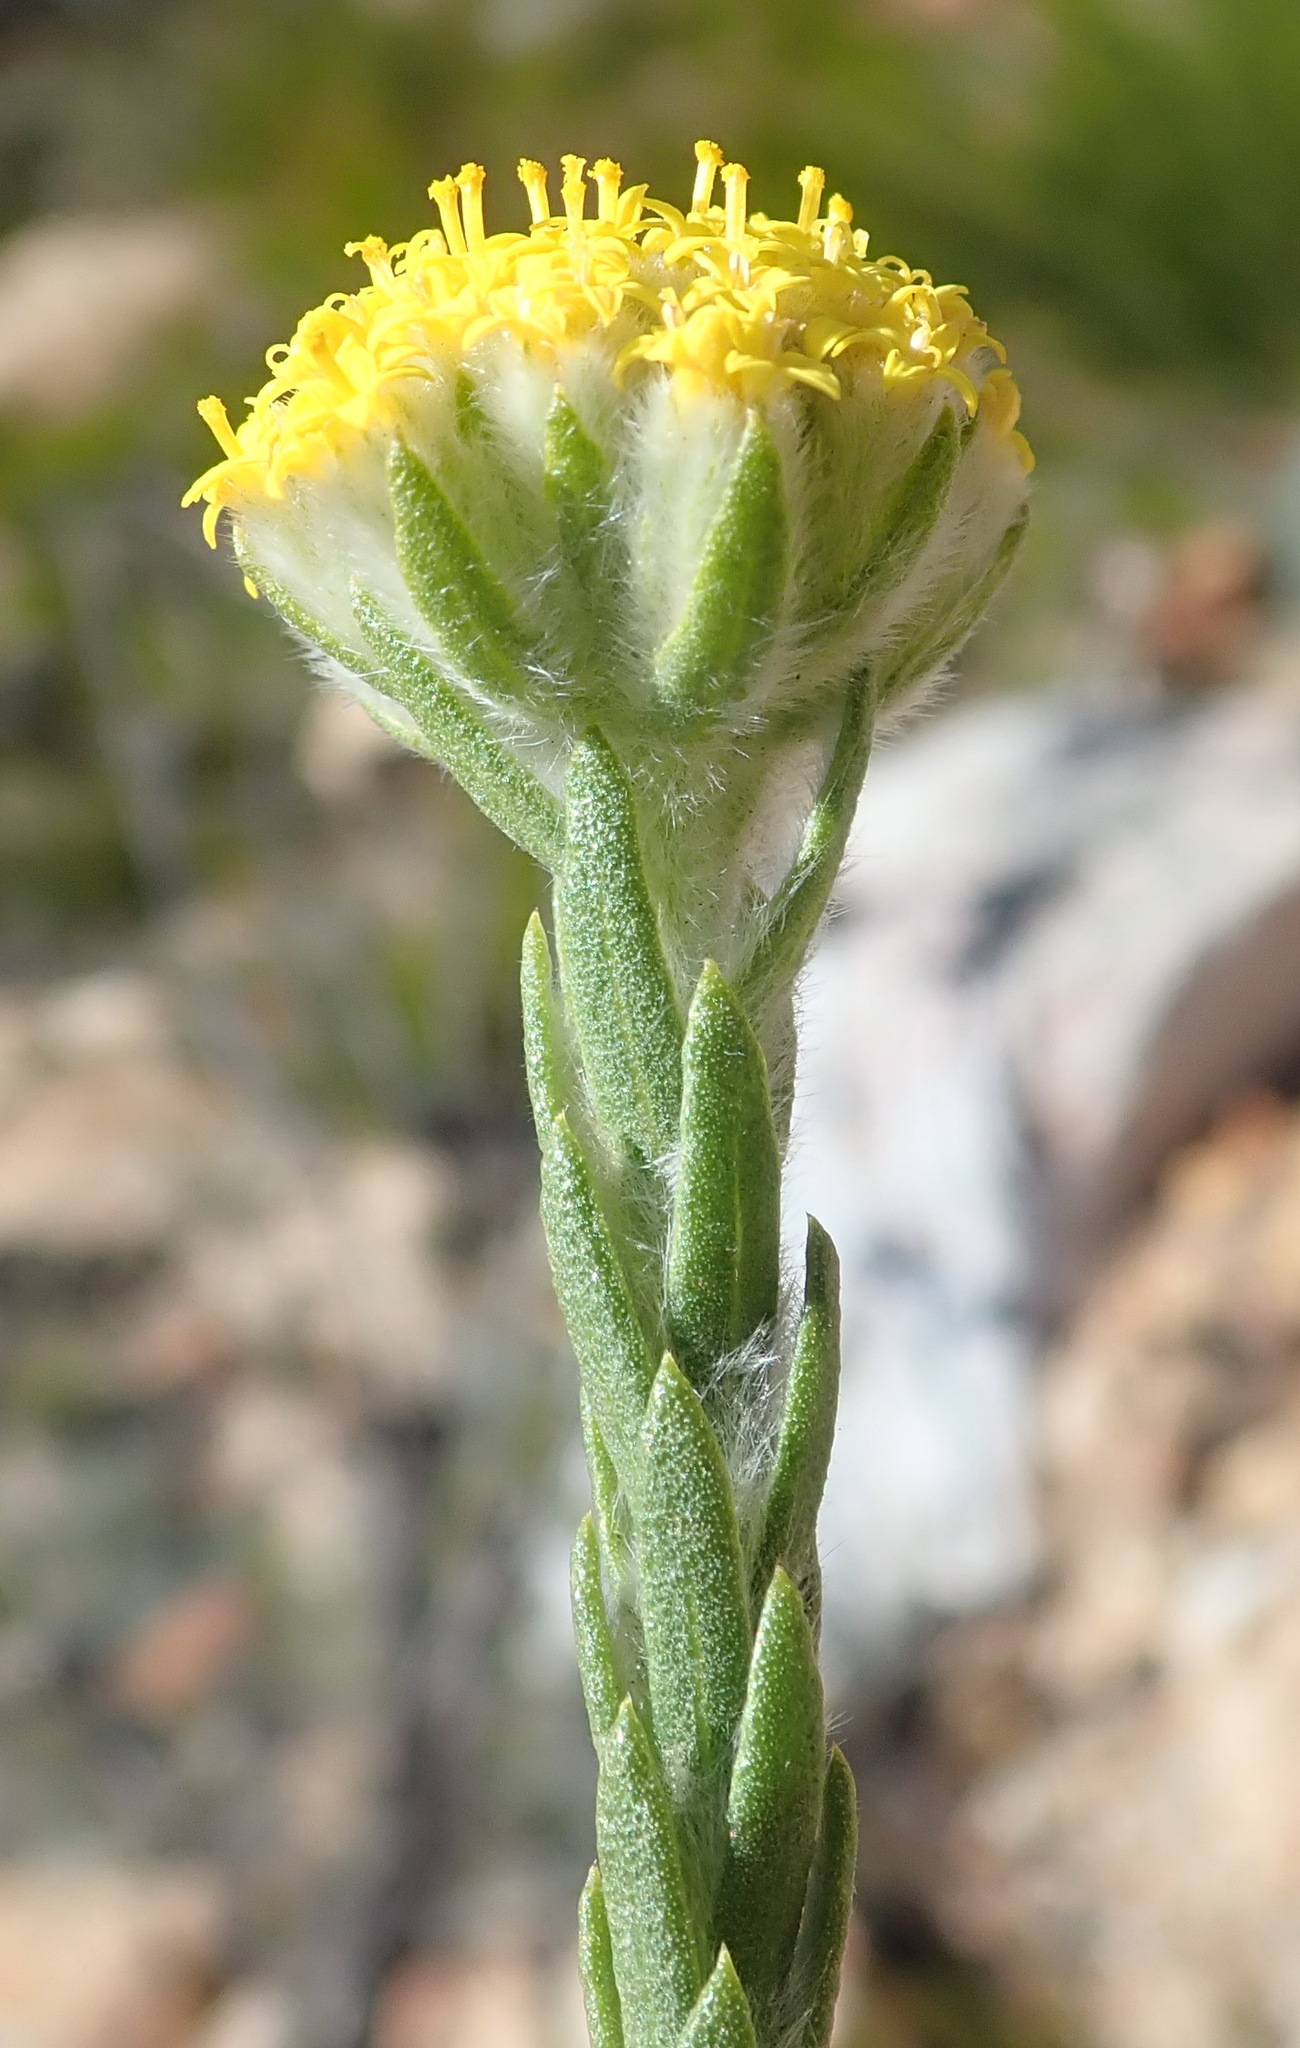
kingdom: Plantae
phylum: Tracheophyta
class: Magnoliopsida
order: Asterales
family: Asteraceae
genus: Hymenolepis
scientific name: Hymenolepis gnidioides
